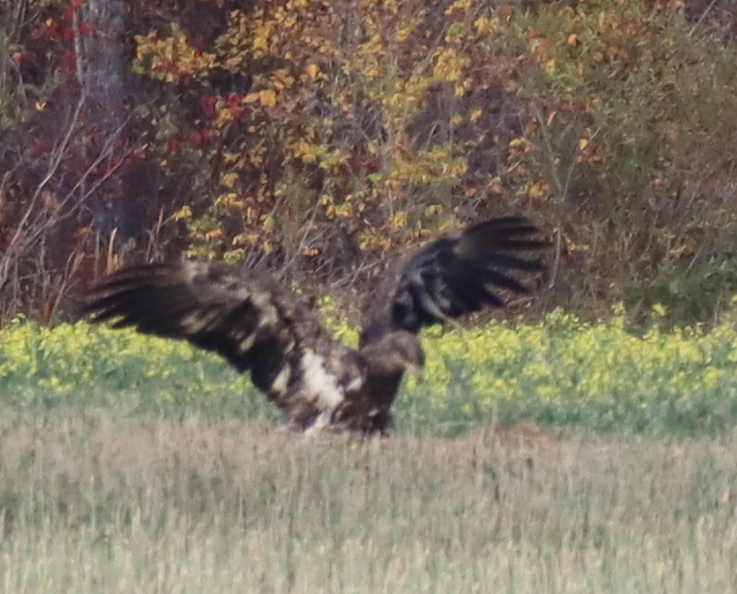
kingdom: Animalia
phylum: Chordata
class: Aves
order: Accipitriformes
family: Accipitridae
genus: Haliaeetus
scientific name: Haliaeetus leucocephalus
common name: Bald eagle
